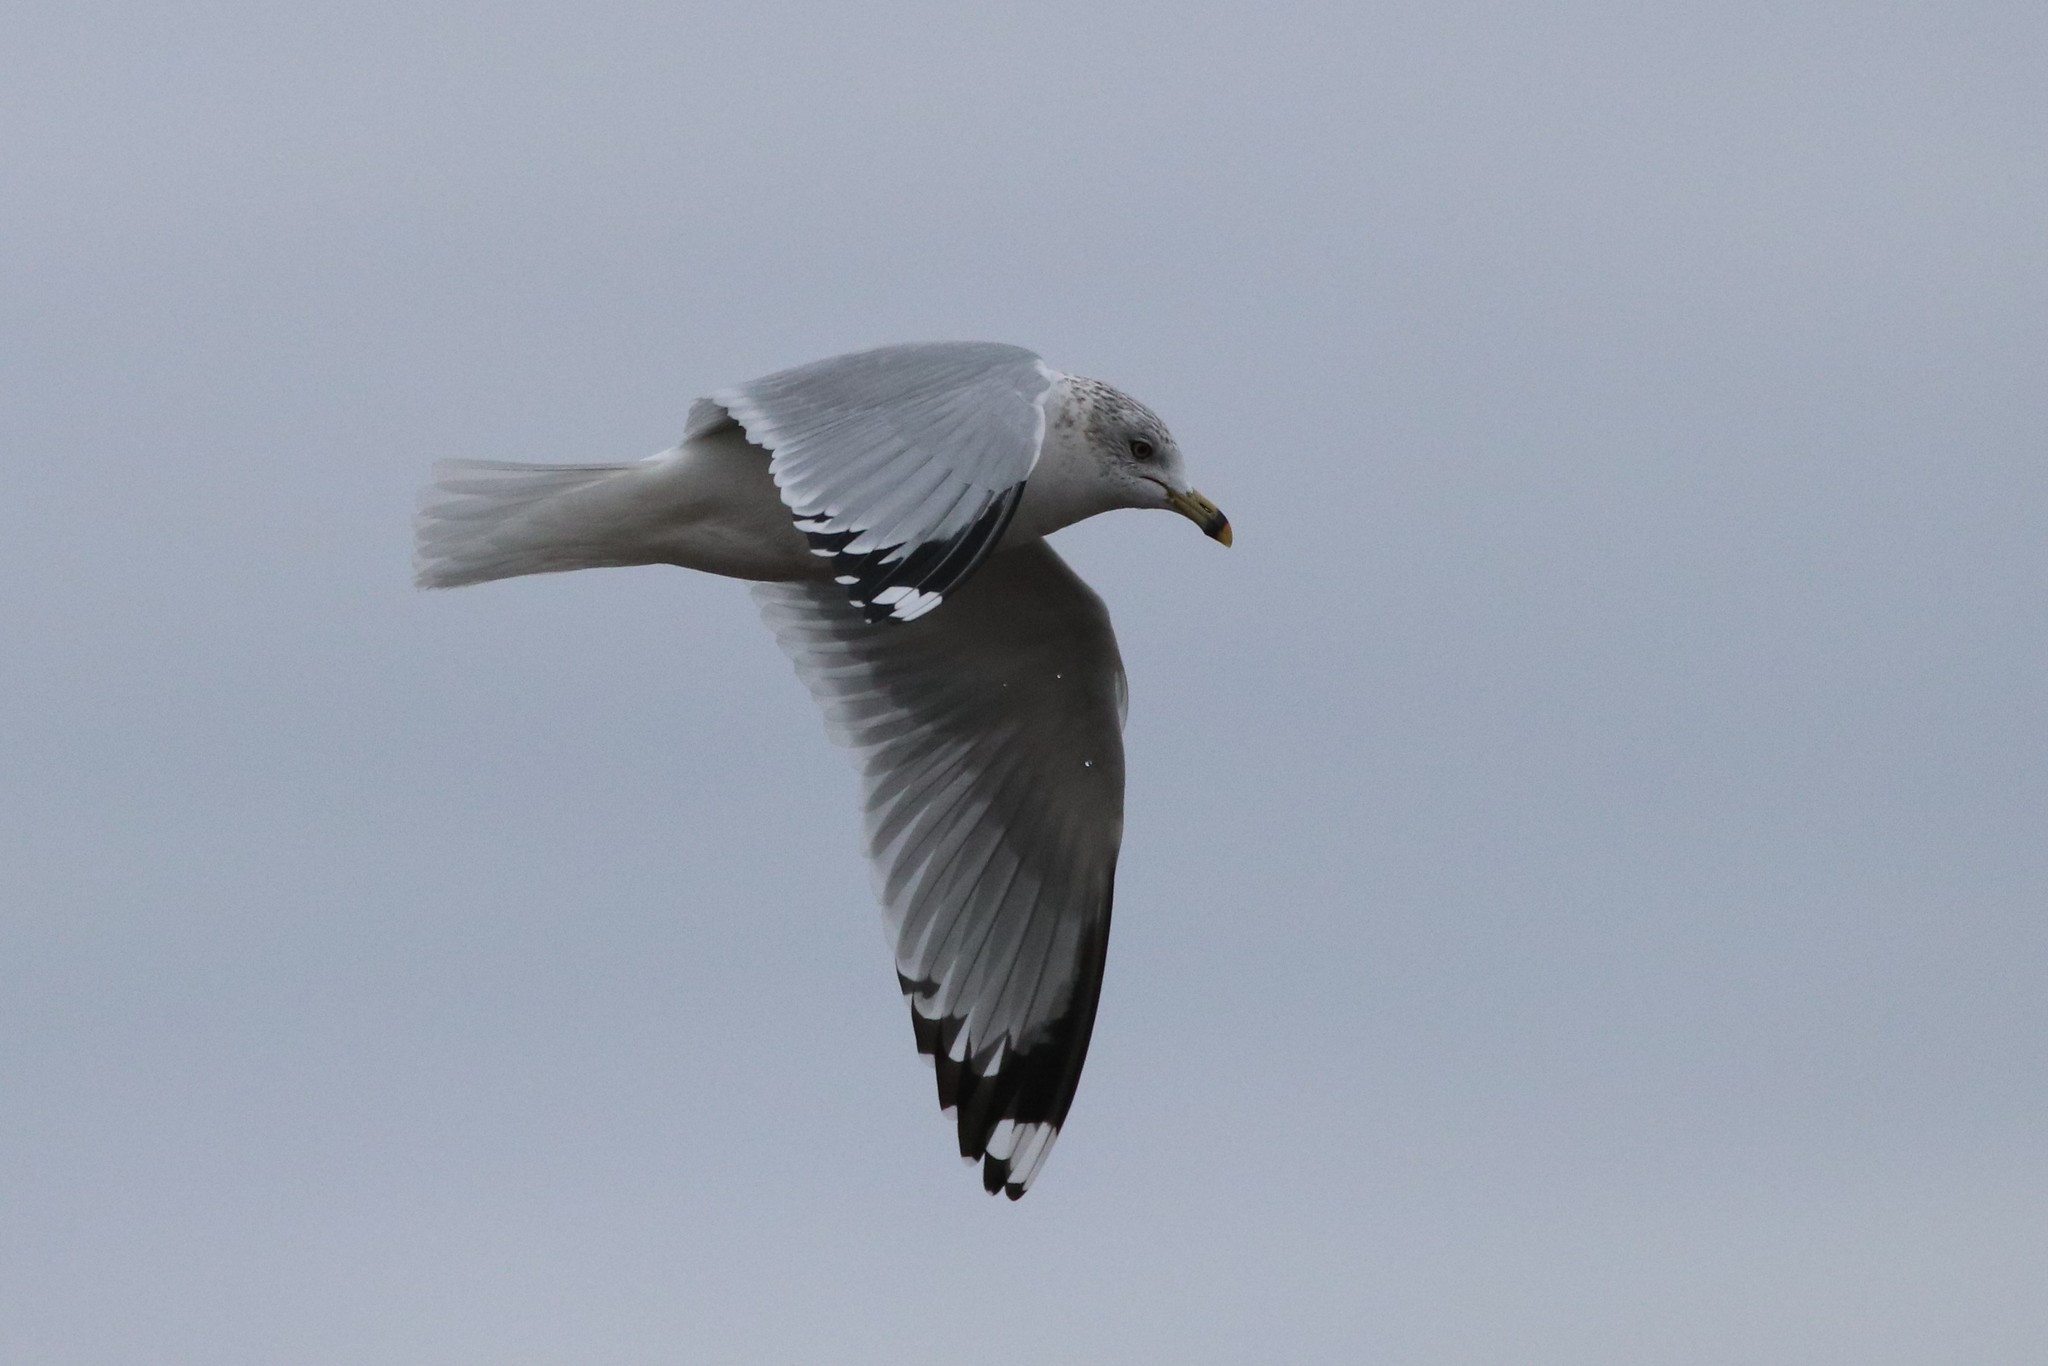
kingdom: Animalia
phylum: Chordata
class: Aves
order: Charadriiformes
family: Laridae
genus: Larus
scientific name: Larus delawarensis
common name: Ring-billed gull
